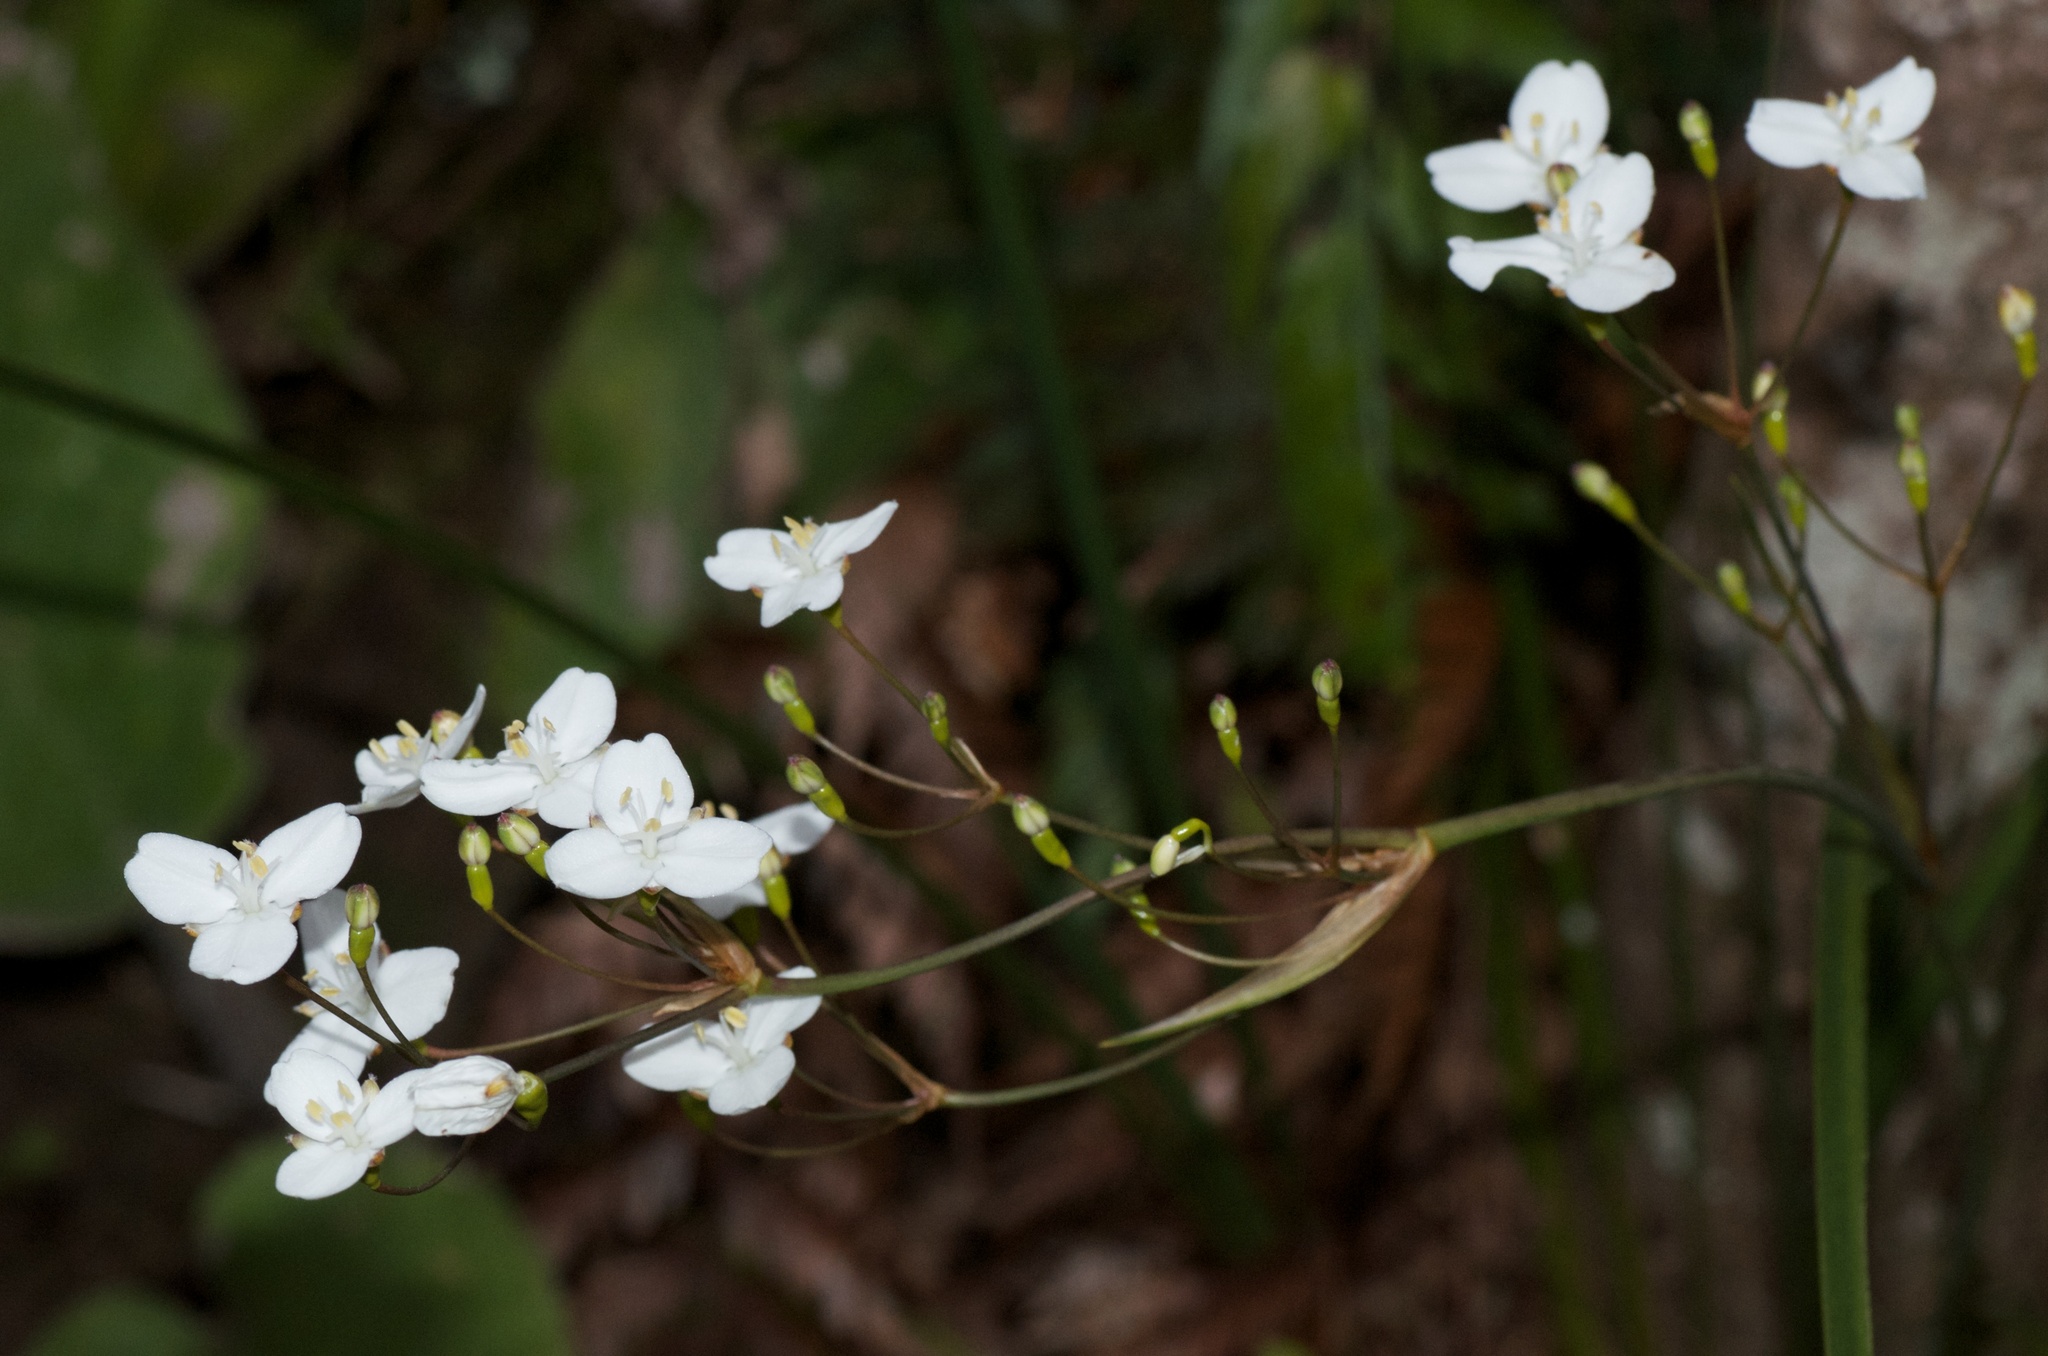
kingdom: Plantae
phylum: Tracheophyta
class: Liliopsida
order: Asparagales
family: Iridaceae
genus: Libertia
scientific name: Libertia ixioides
